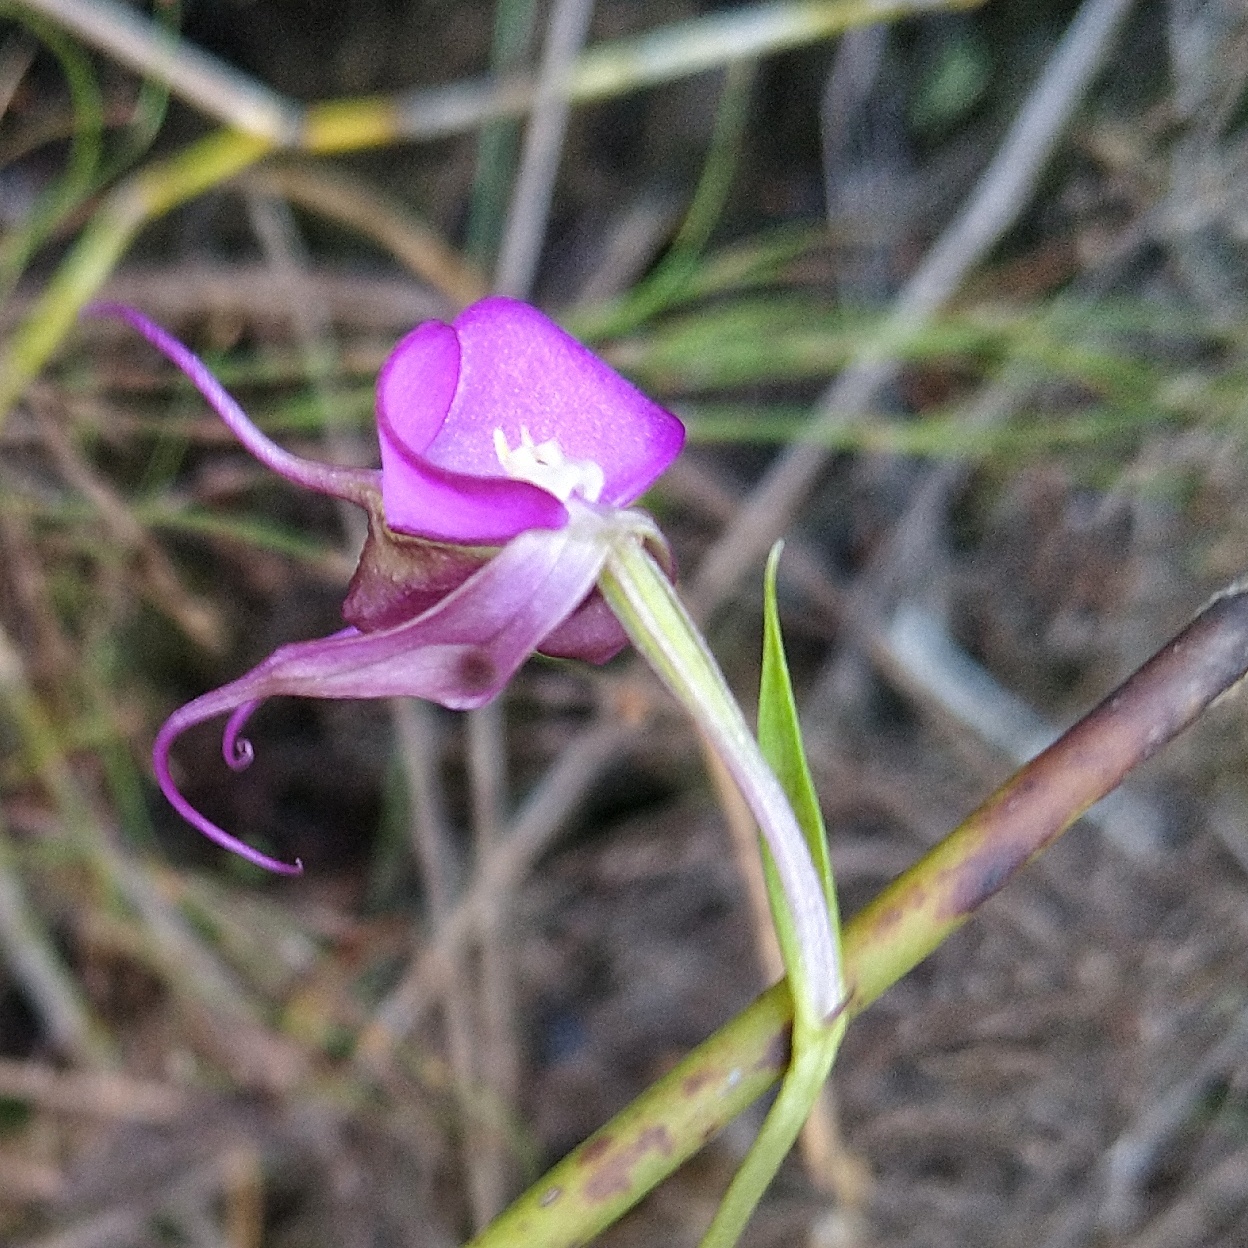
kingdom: Plantae
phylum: Tracheophyta
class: Liliopsida
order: Asparagales
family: Orchidaceae
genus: Disperis
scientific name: Disperis capensis
